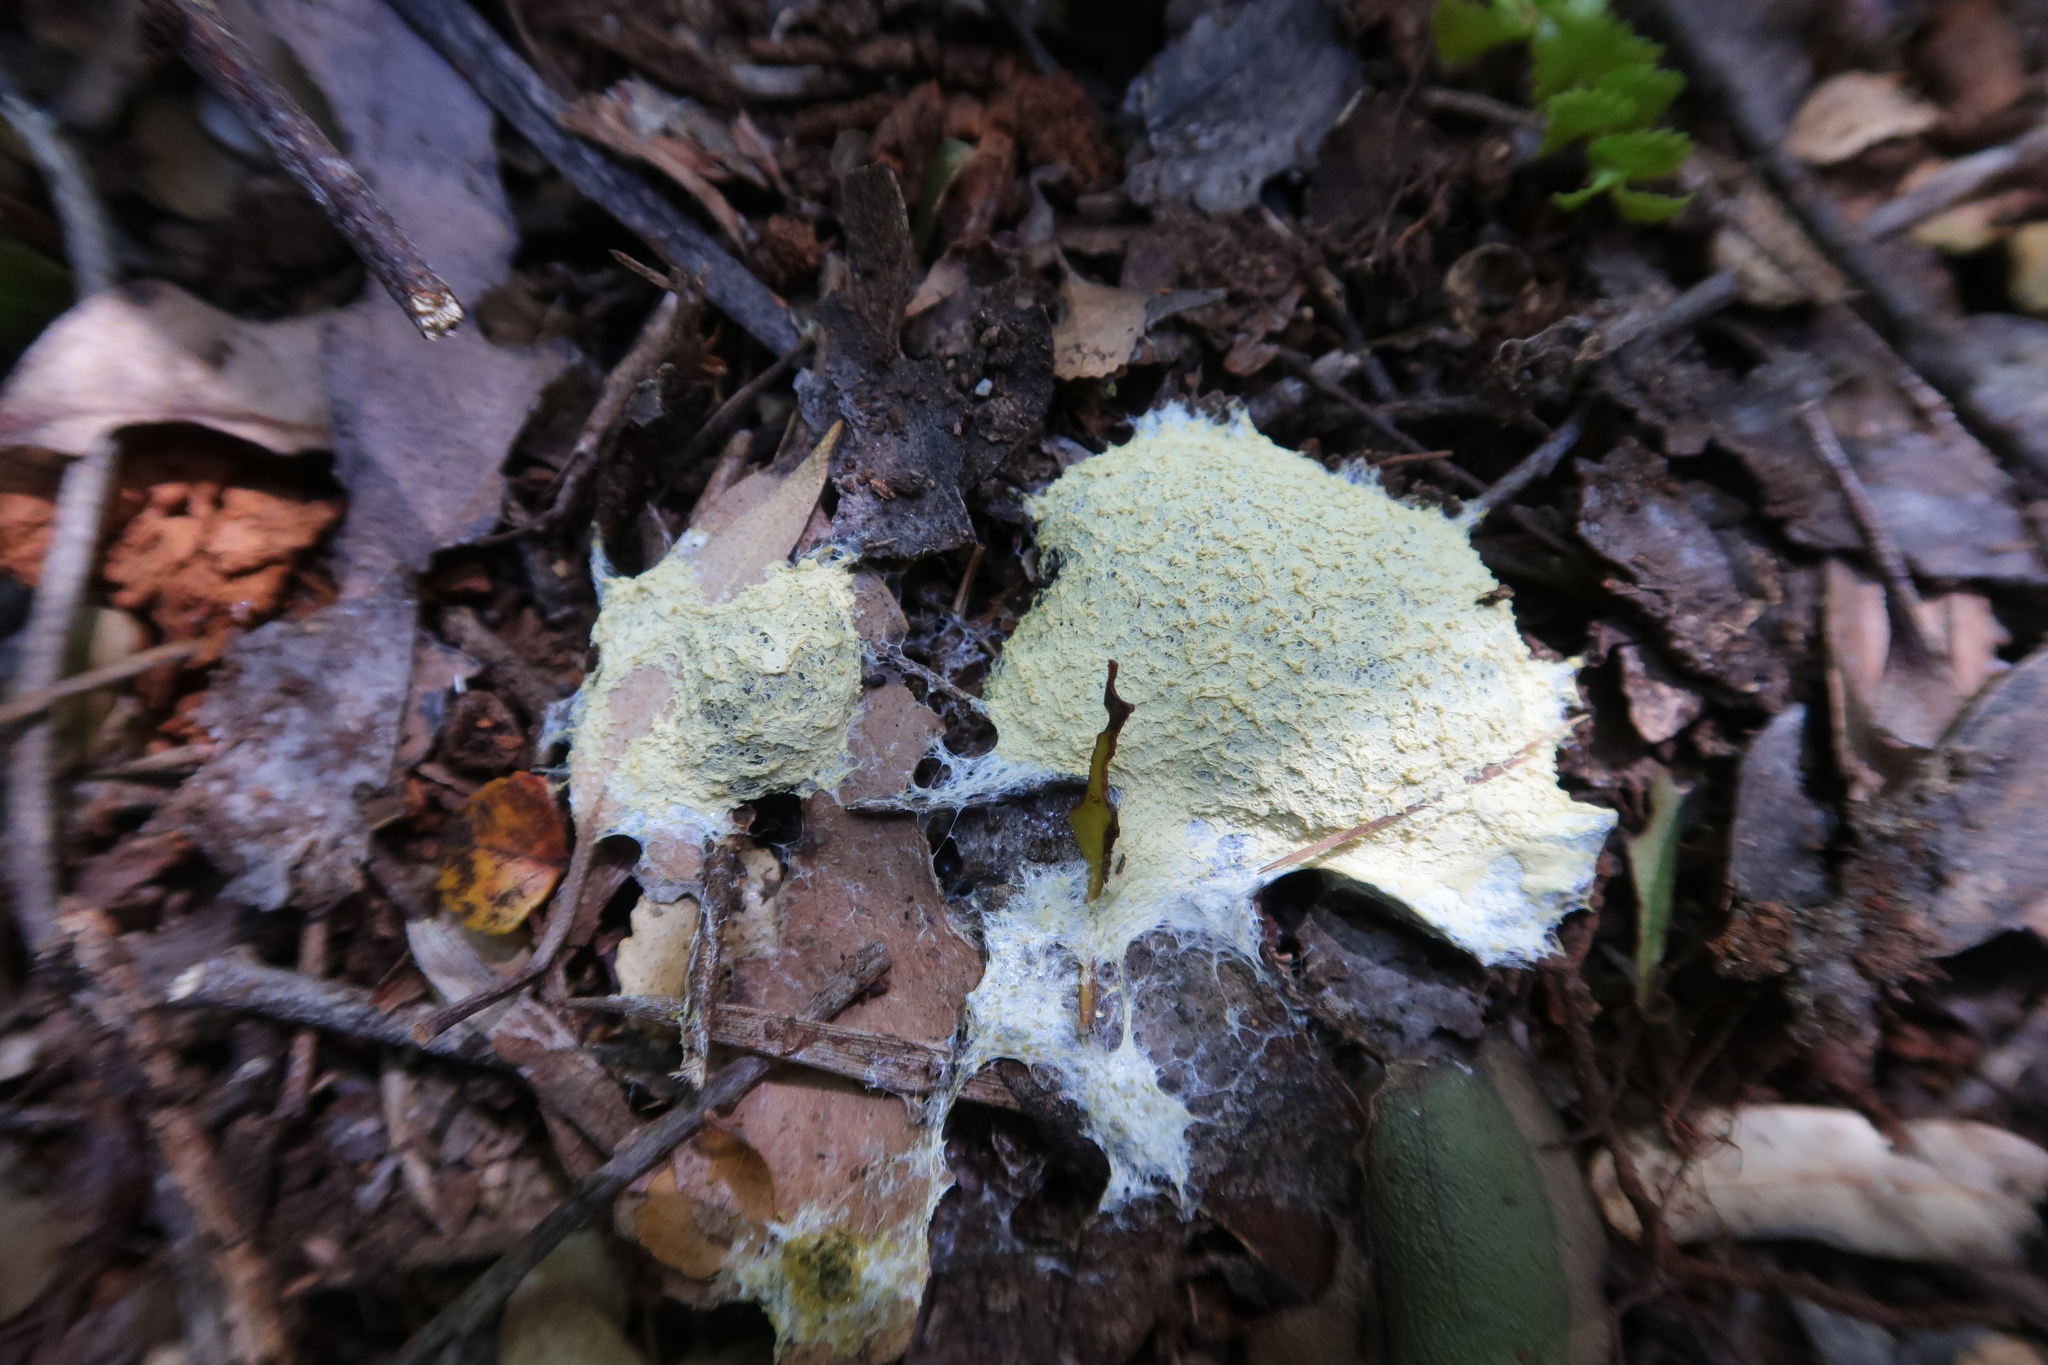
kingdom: Protozoa
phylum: Mycetozoa
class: Myxomycetes
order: Physarales
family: Physaraceae
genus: Fuligo
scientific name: Fuligo septica
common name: Dog vomit slime mold
